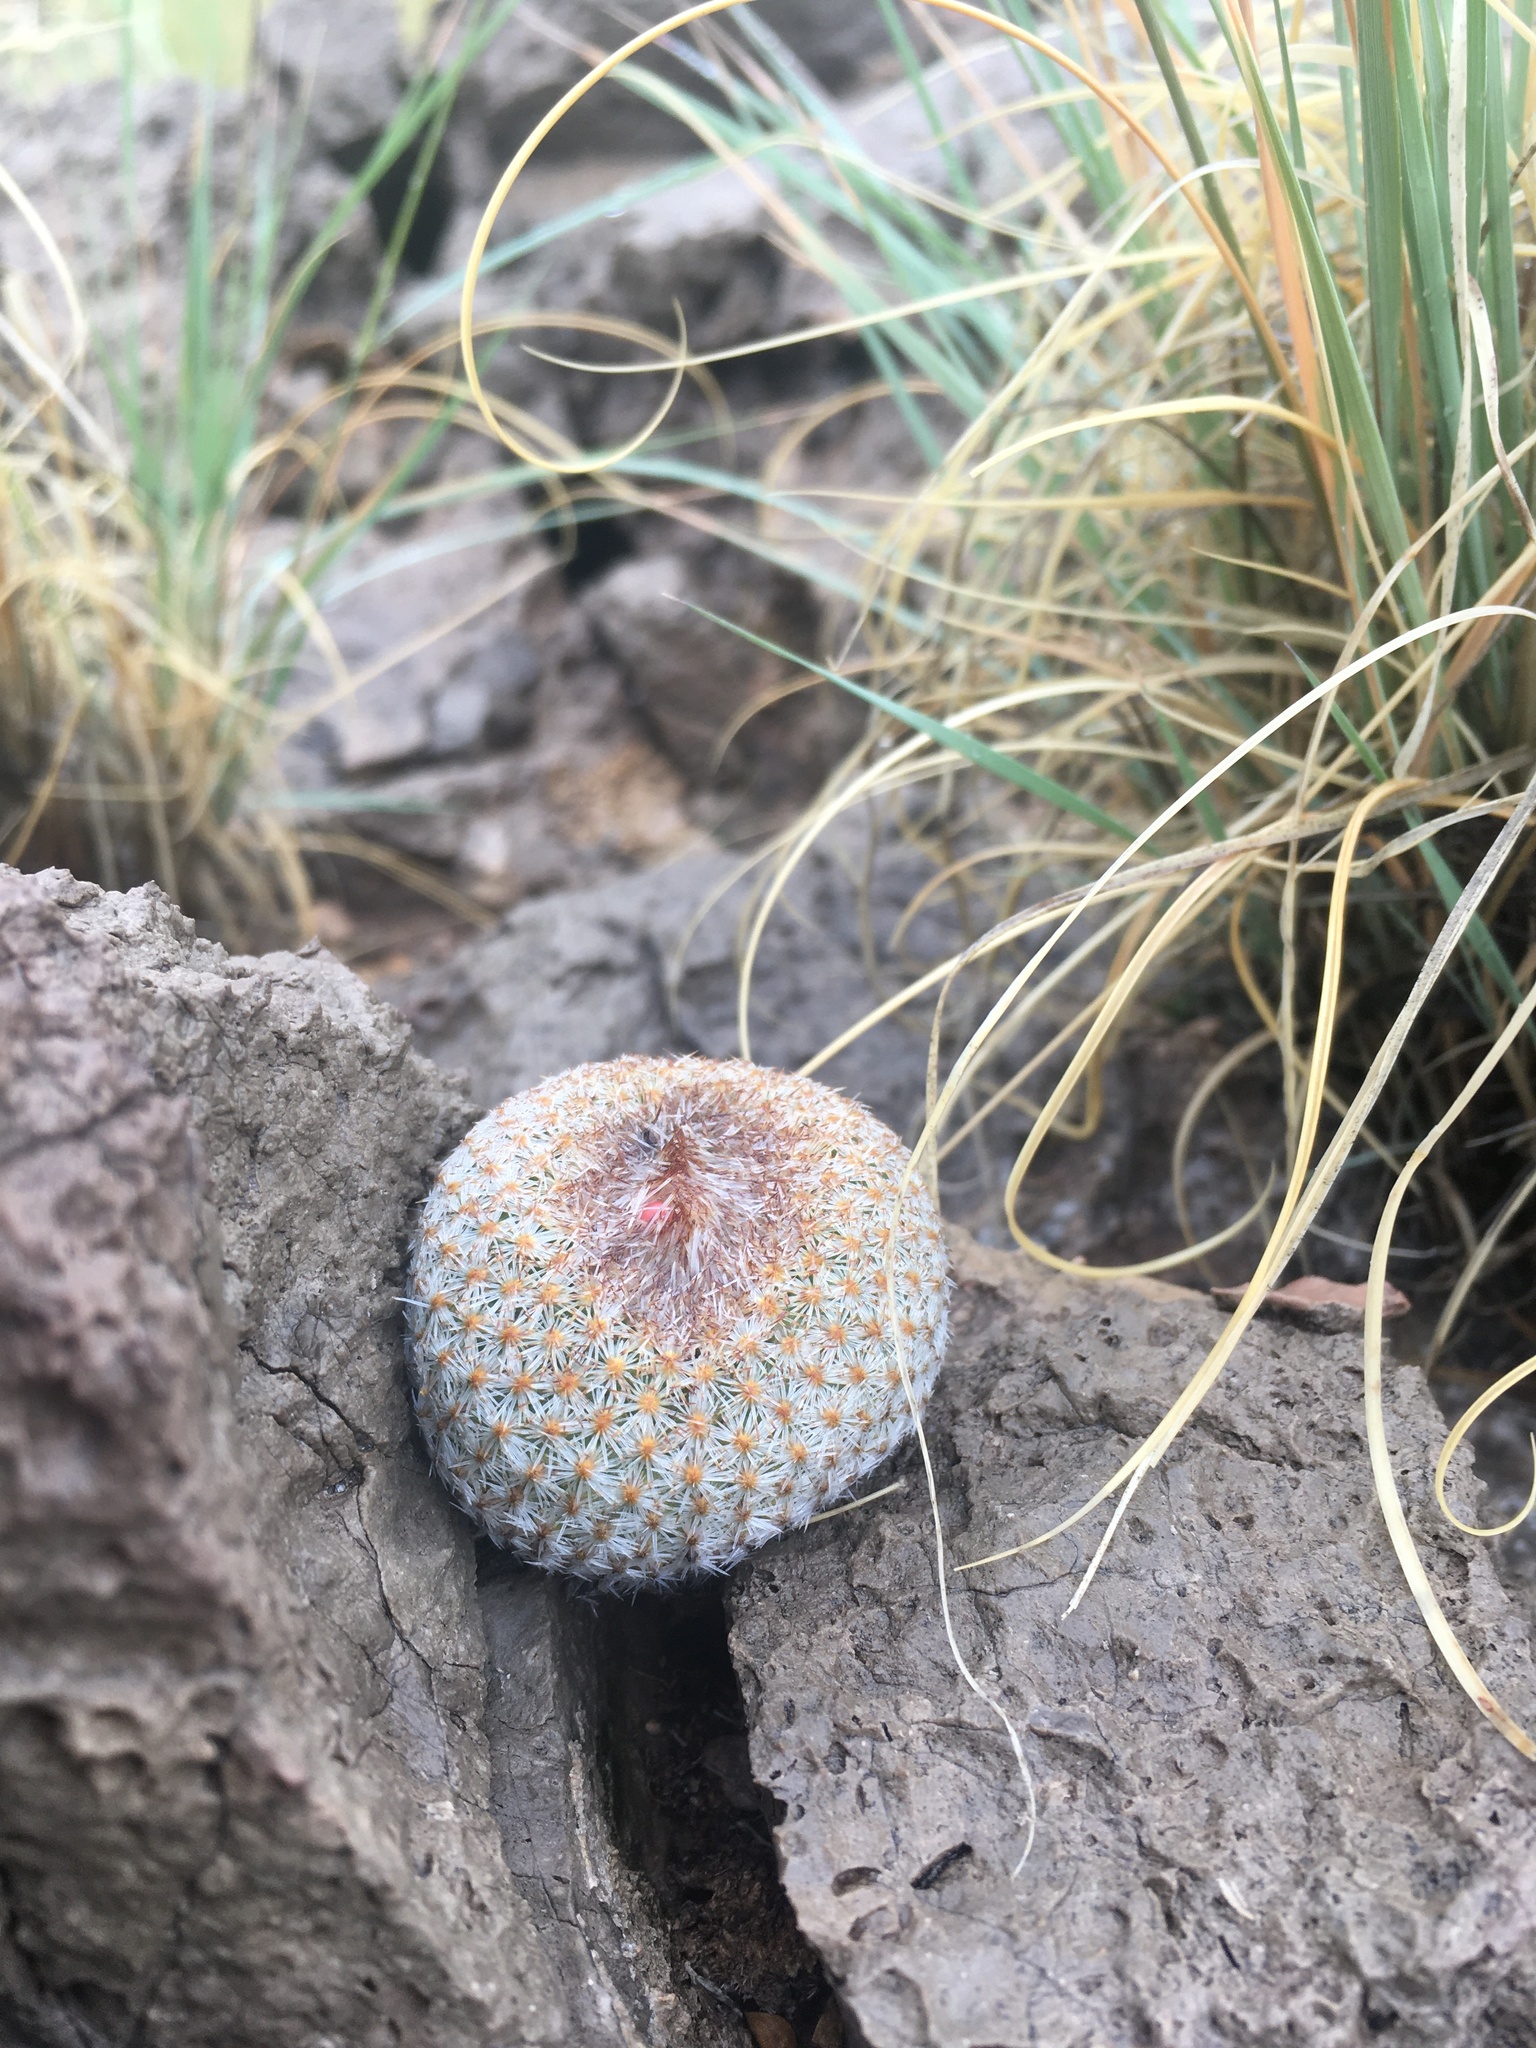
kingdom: Plantae
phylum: Tracheophyta
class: Magnoliopsida
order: Caryophyllales
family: Cactaceae
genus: Epithelantha
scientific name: Epithelantha micromeris
